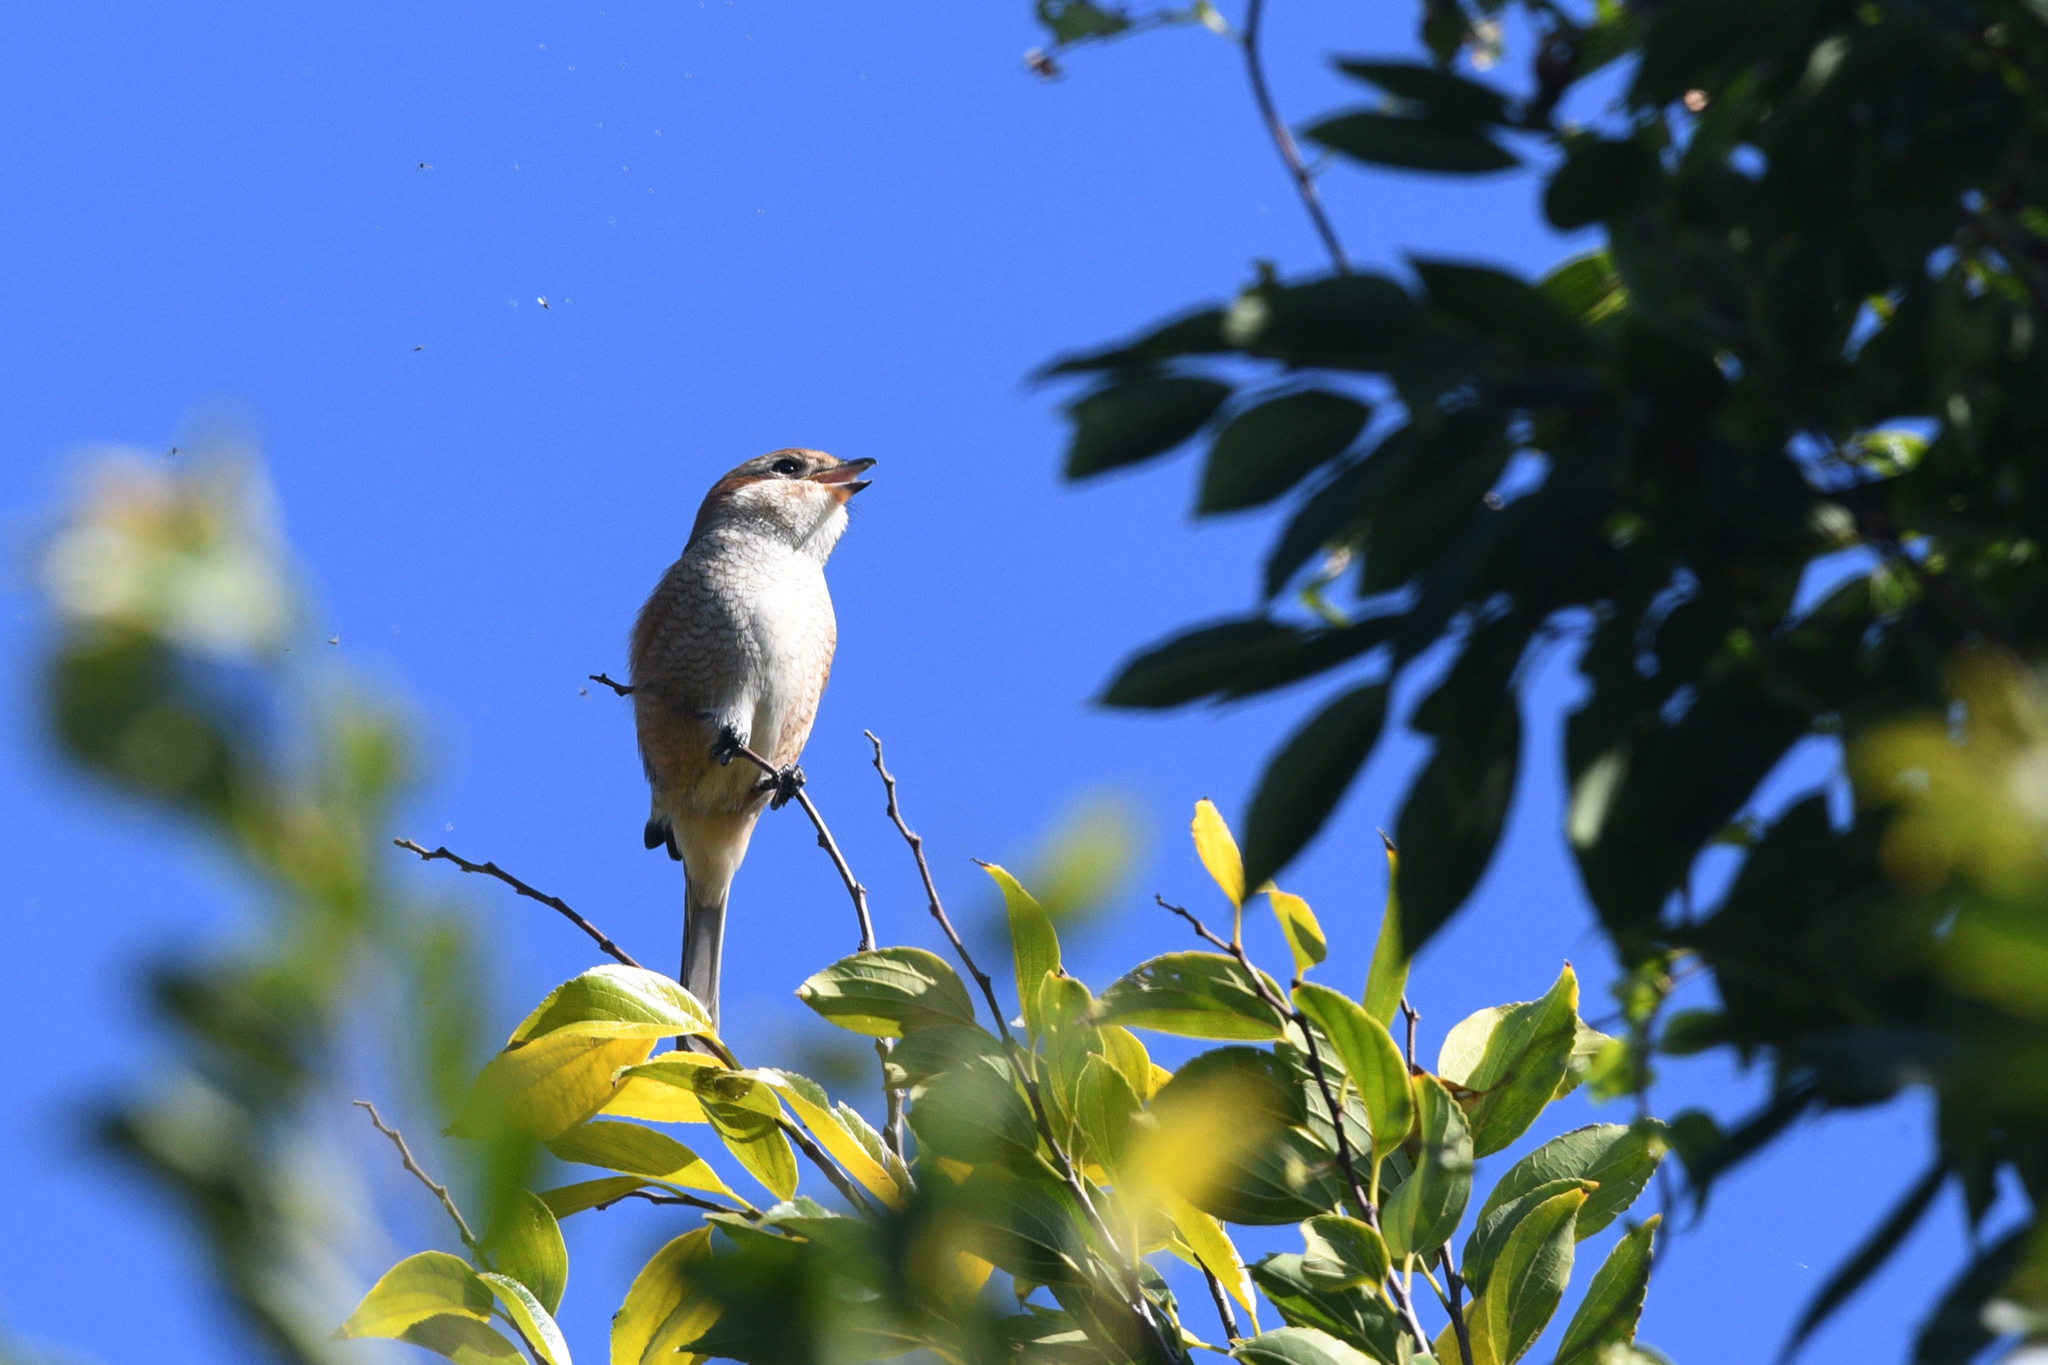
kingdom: Animalia
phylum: Chordata
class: Aves
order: Passeriformes
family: Laniidae
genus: Lanius
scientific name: Lanius bucephalus
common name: Bull-headed shrike
